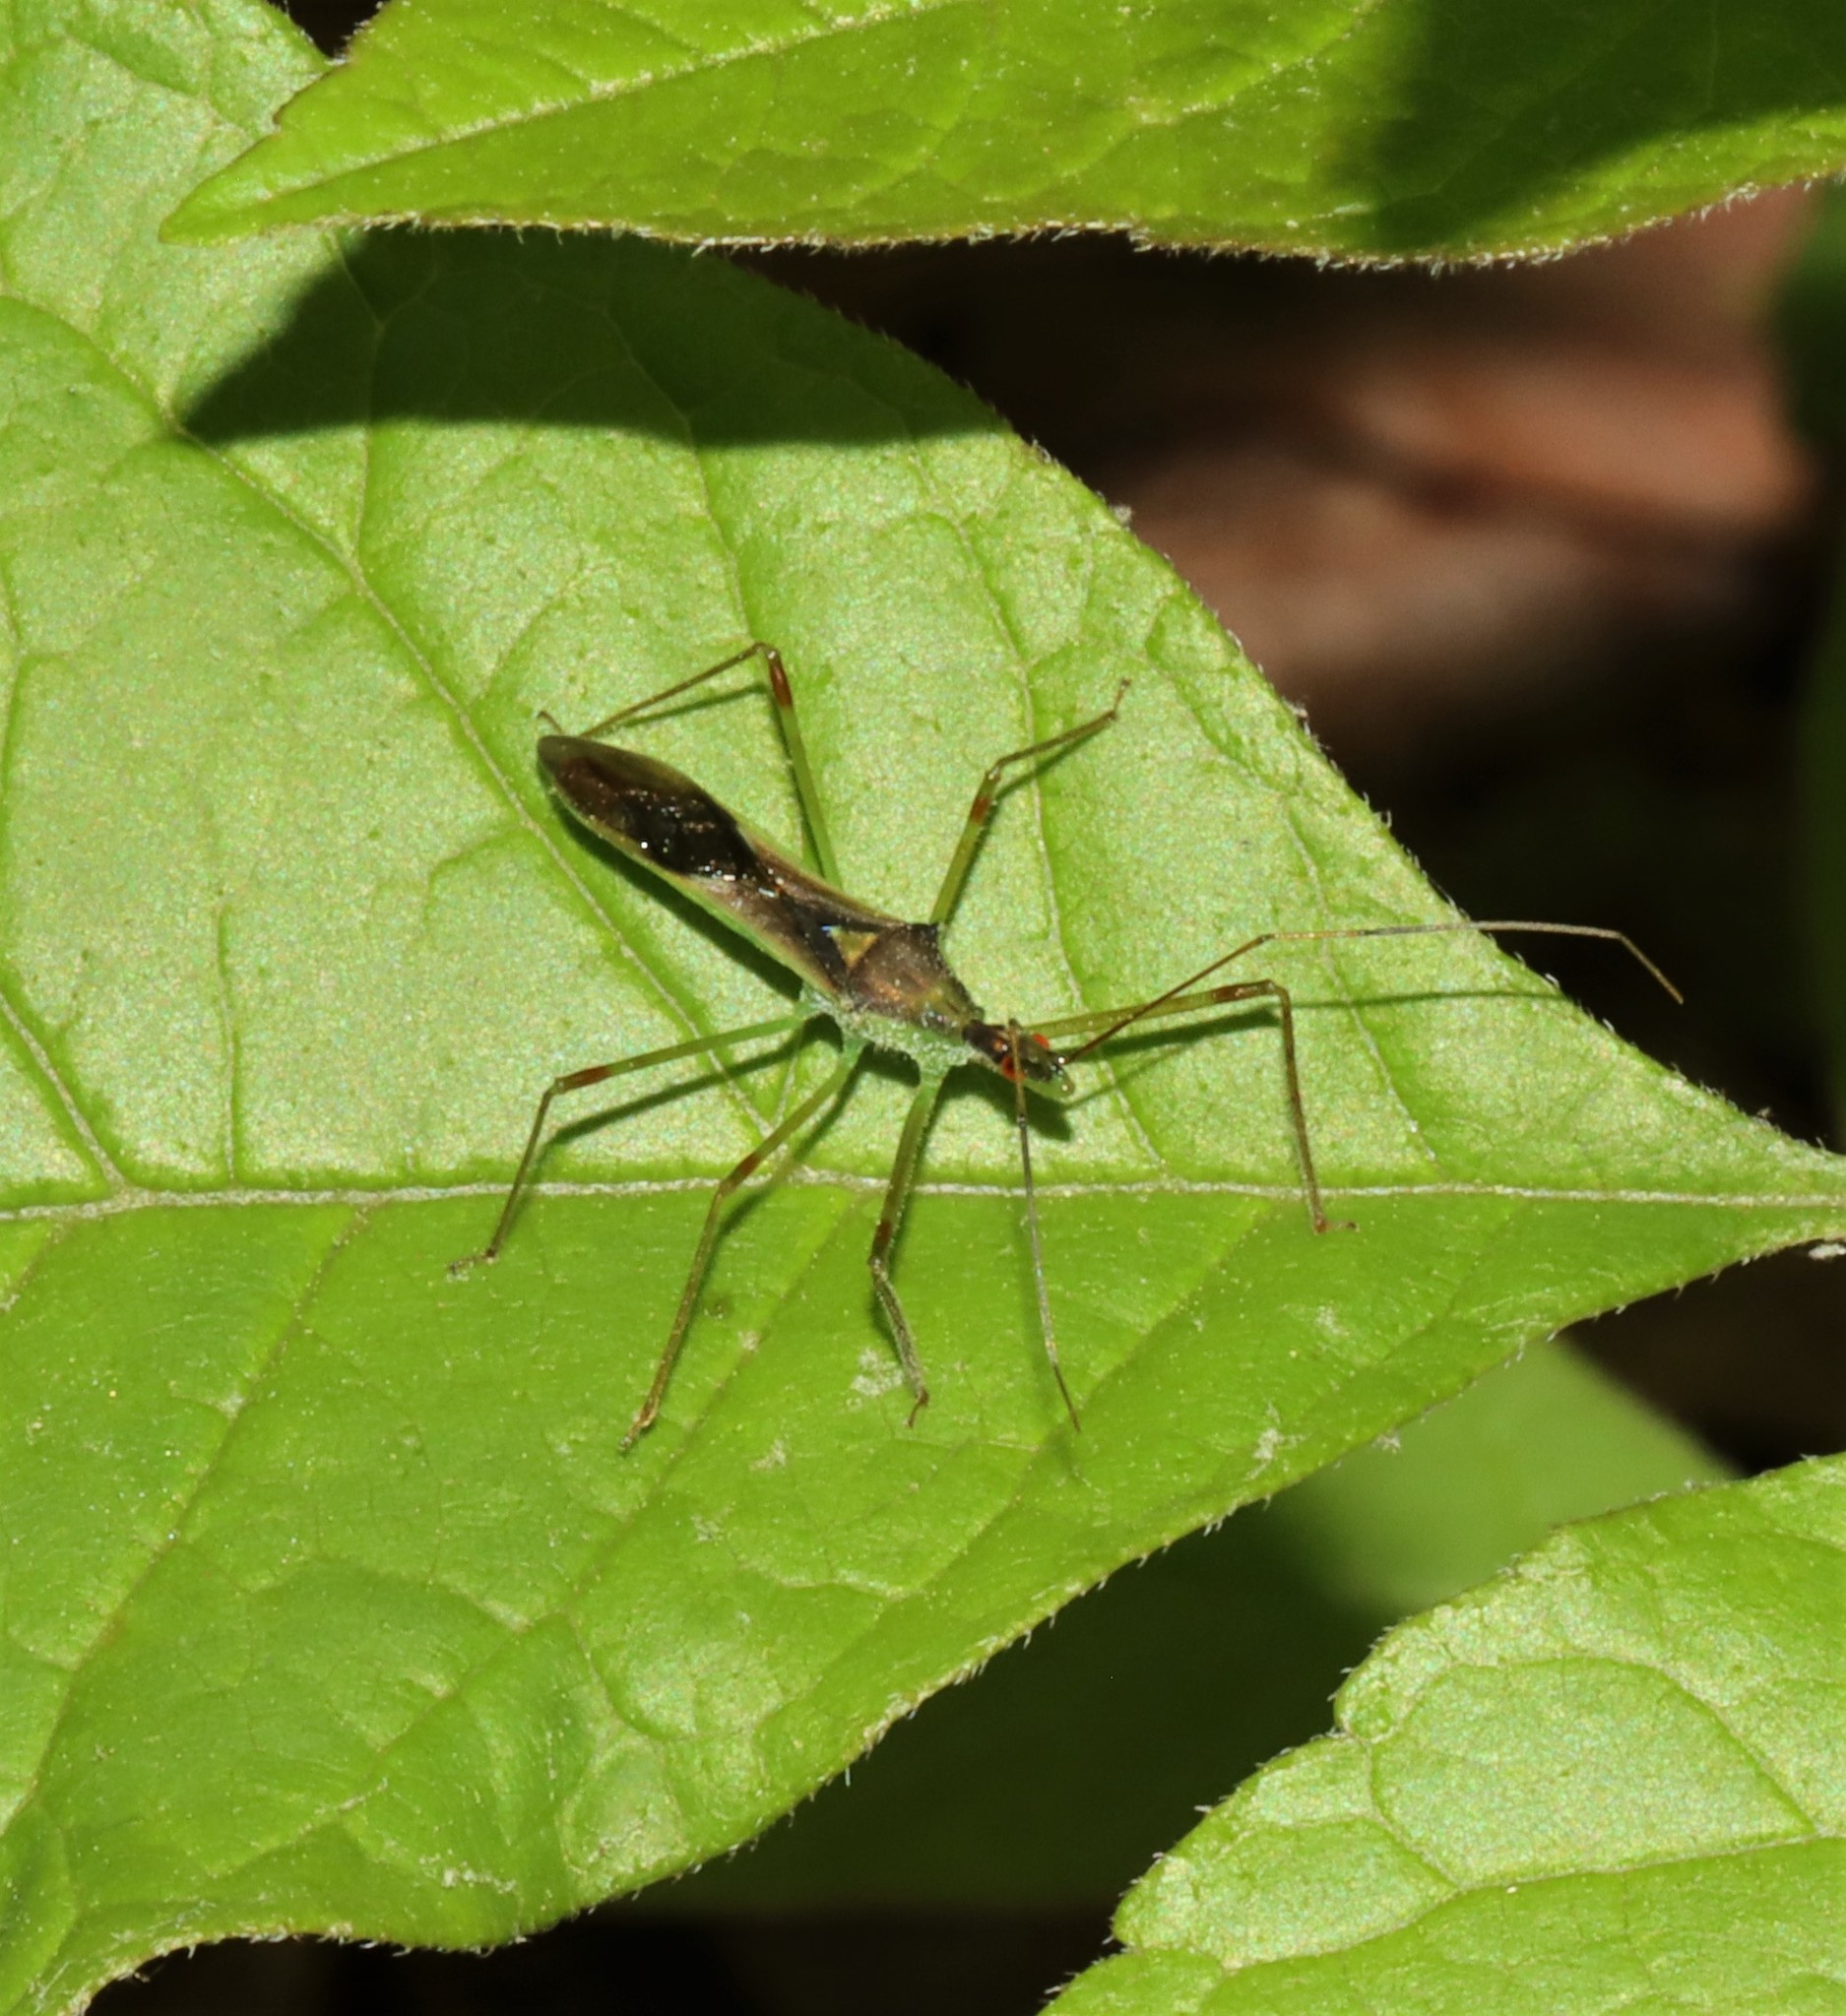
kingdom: Animalia
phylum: Arthropoda
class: Insecta
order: Hemiptera
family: Reduviidae
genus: Zelus
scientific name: Zelus luridus
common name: Pale green assassin bug
